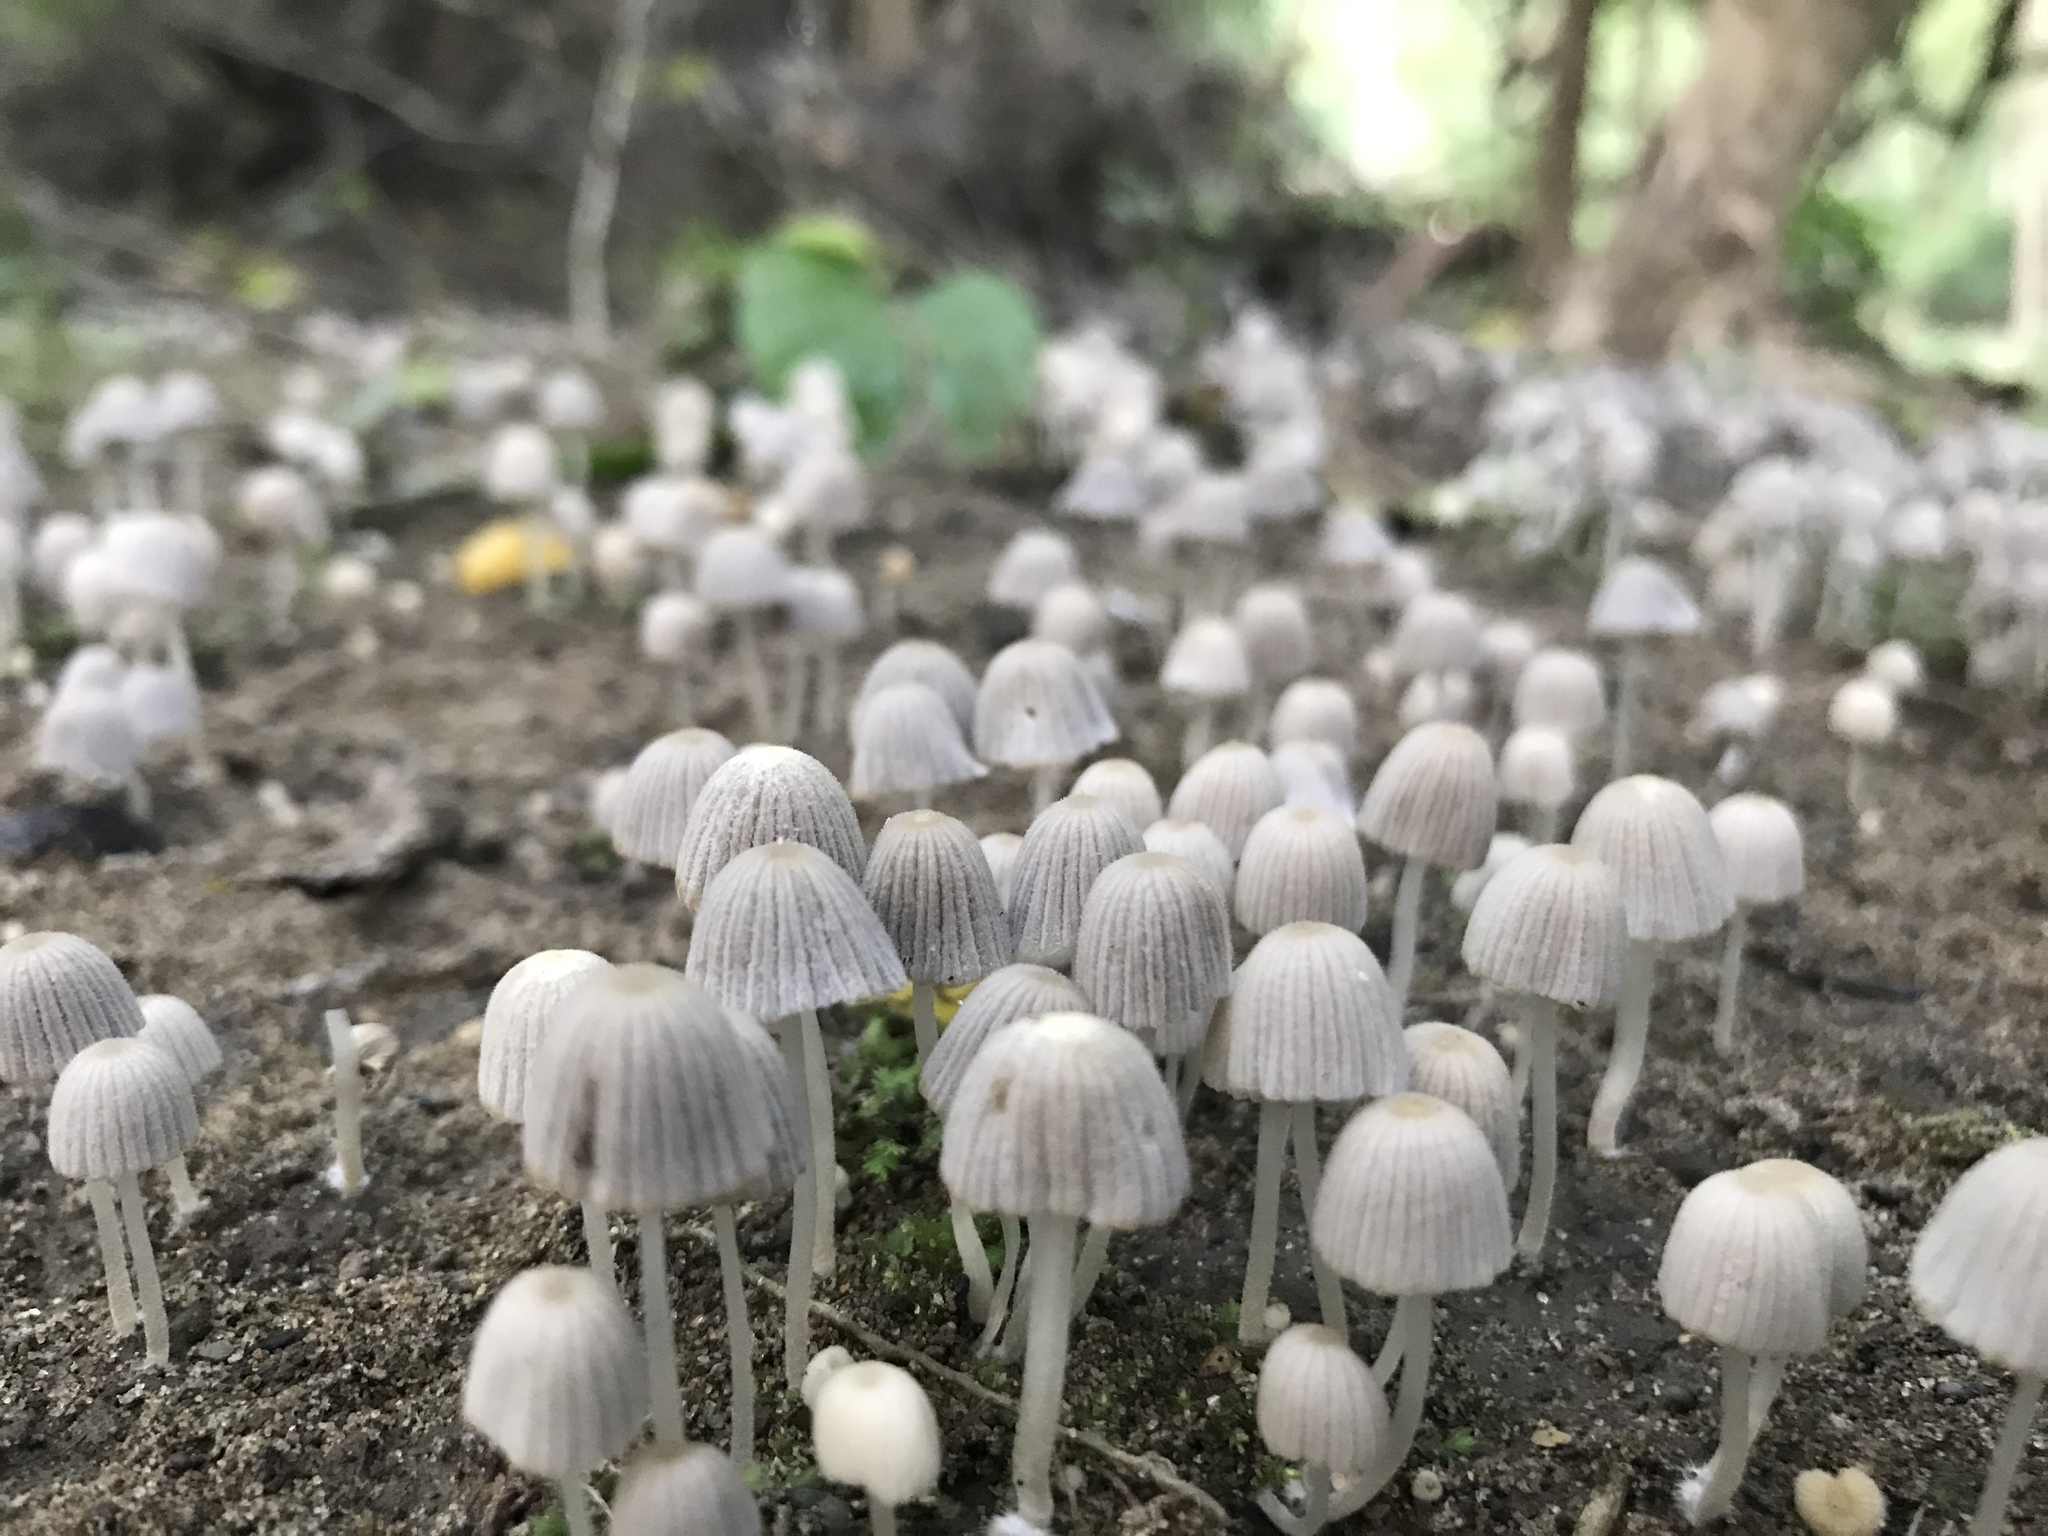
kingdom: Fungi
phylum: Basidiomycota
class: Agaricomycetes
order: Agaricales
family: Psathyrellaceae
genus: Coprinellus
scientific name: Coprinellus disseminatus
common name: Fairies' bonnets
